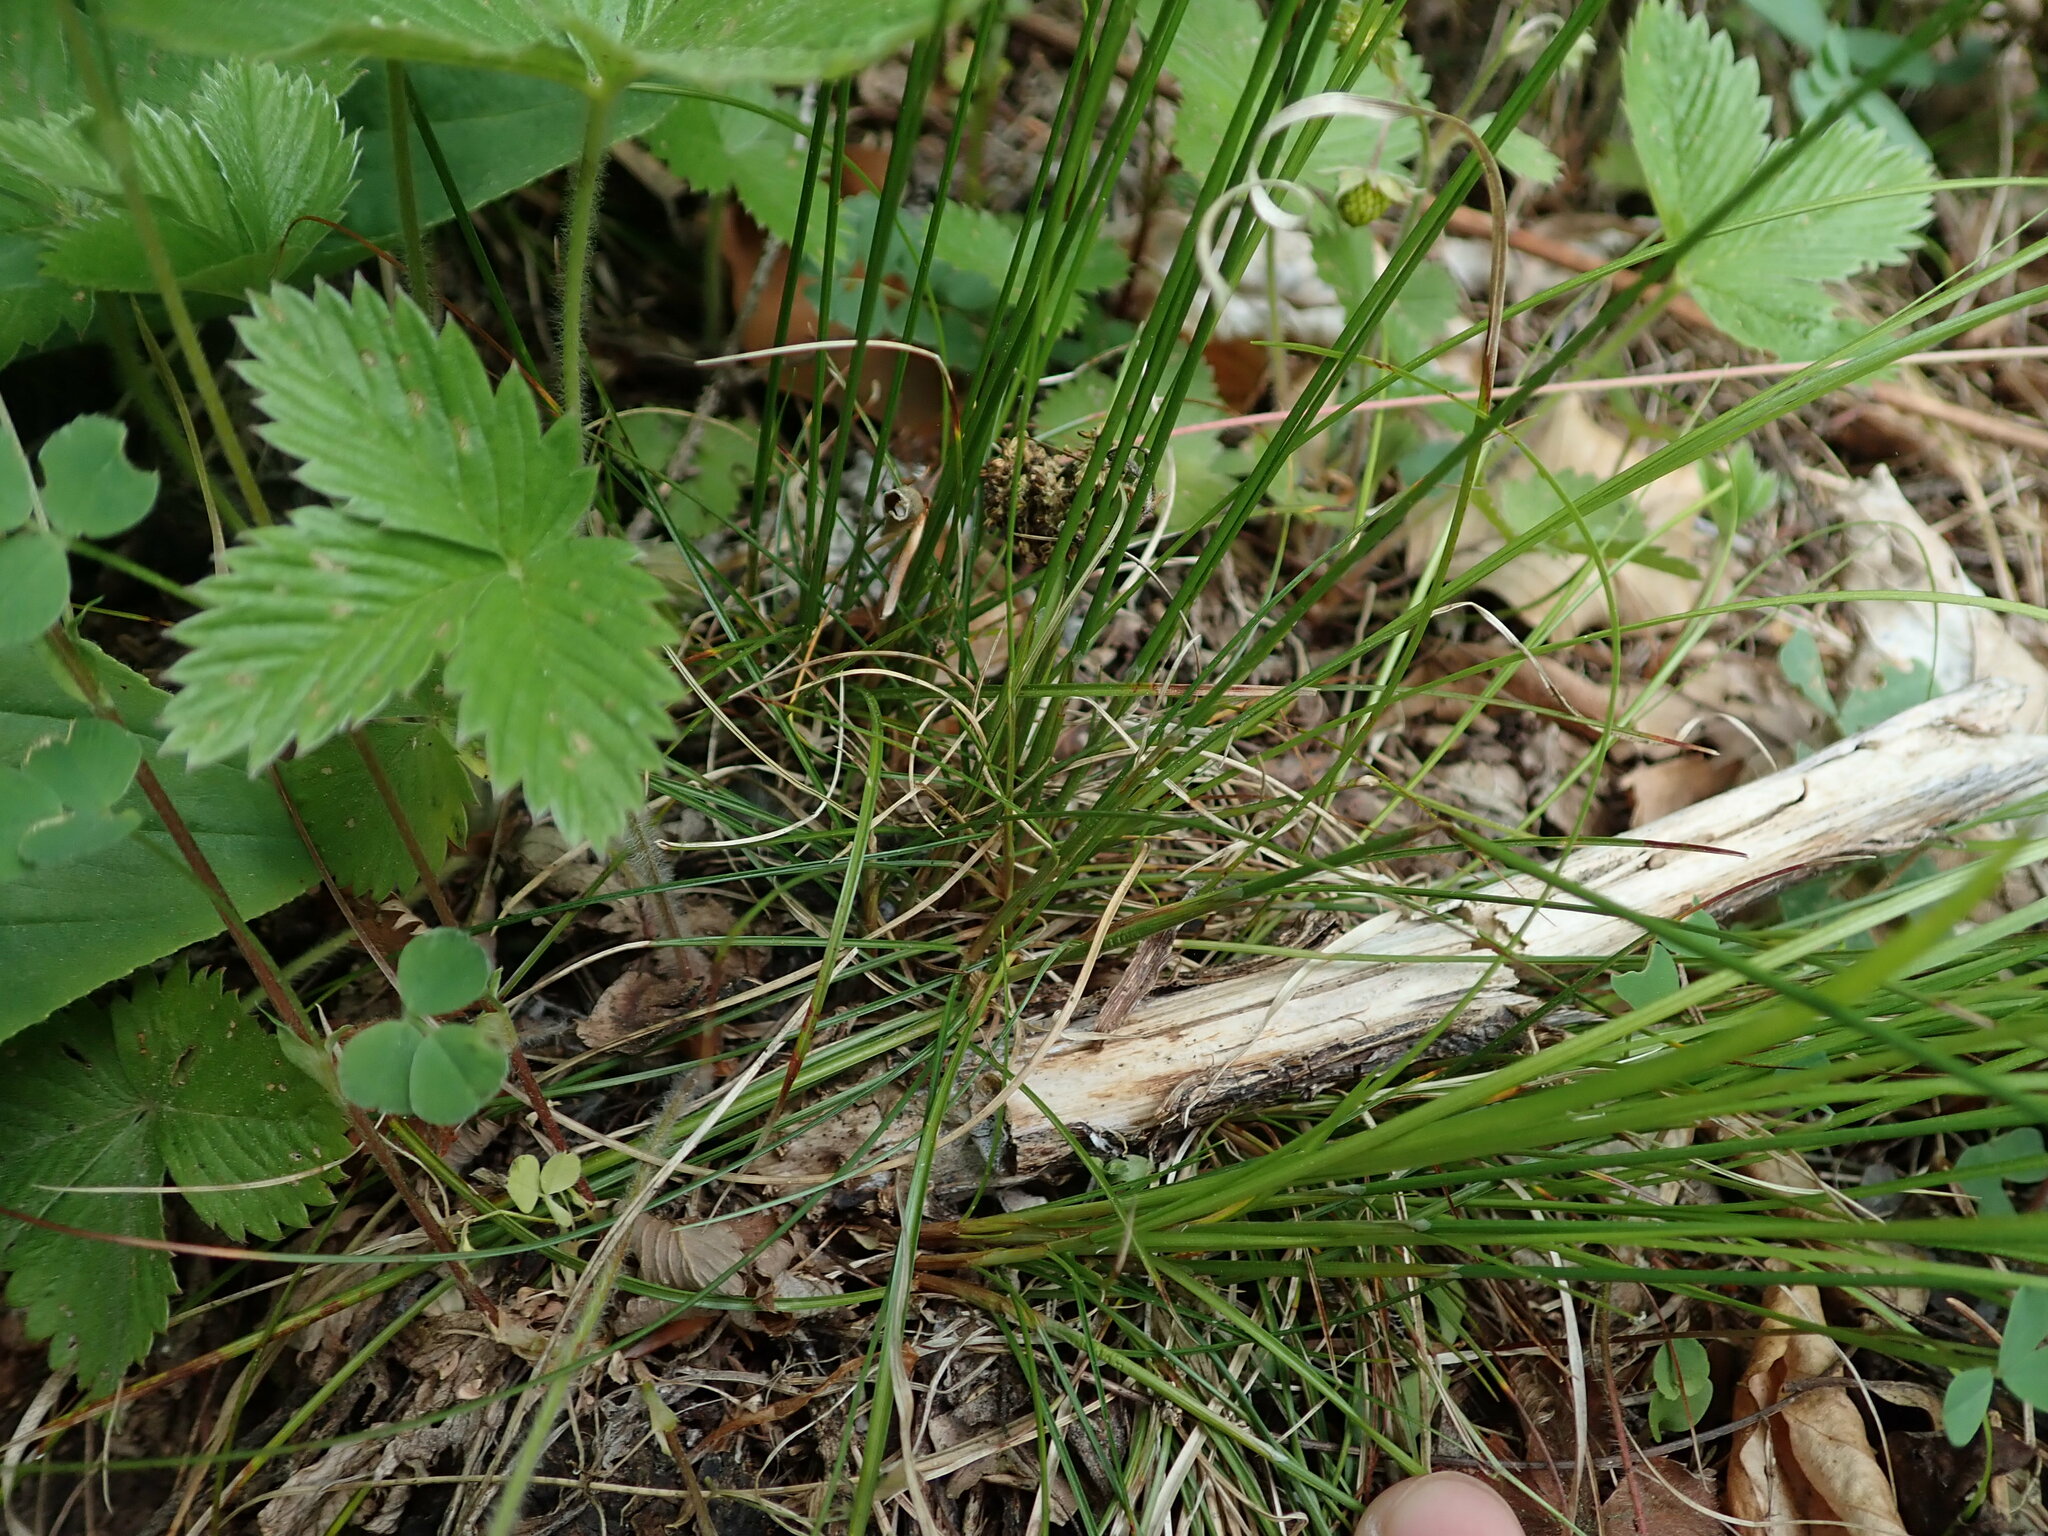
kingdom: Plantae
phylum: Tracheophyta
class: Liliopsida
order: Poales
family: Cyperaceae
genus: Carex
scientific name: Carex alba
